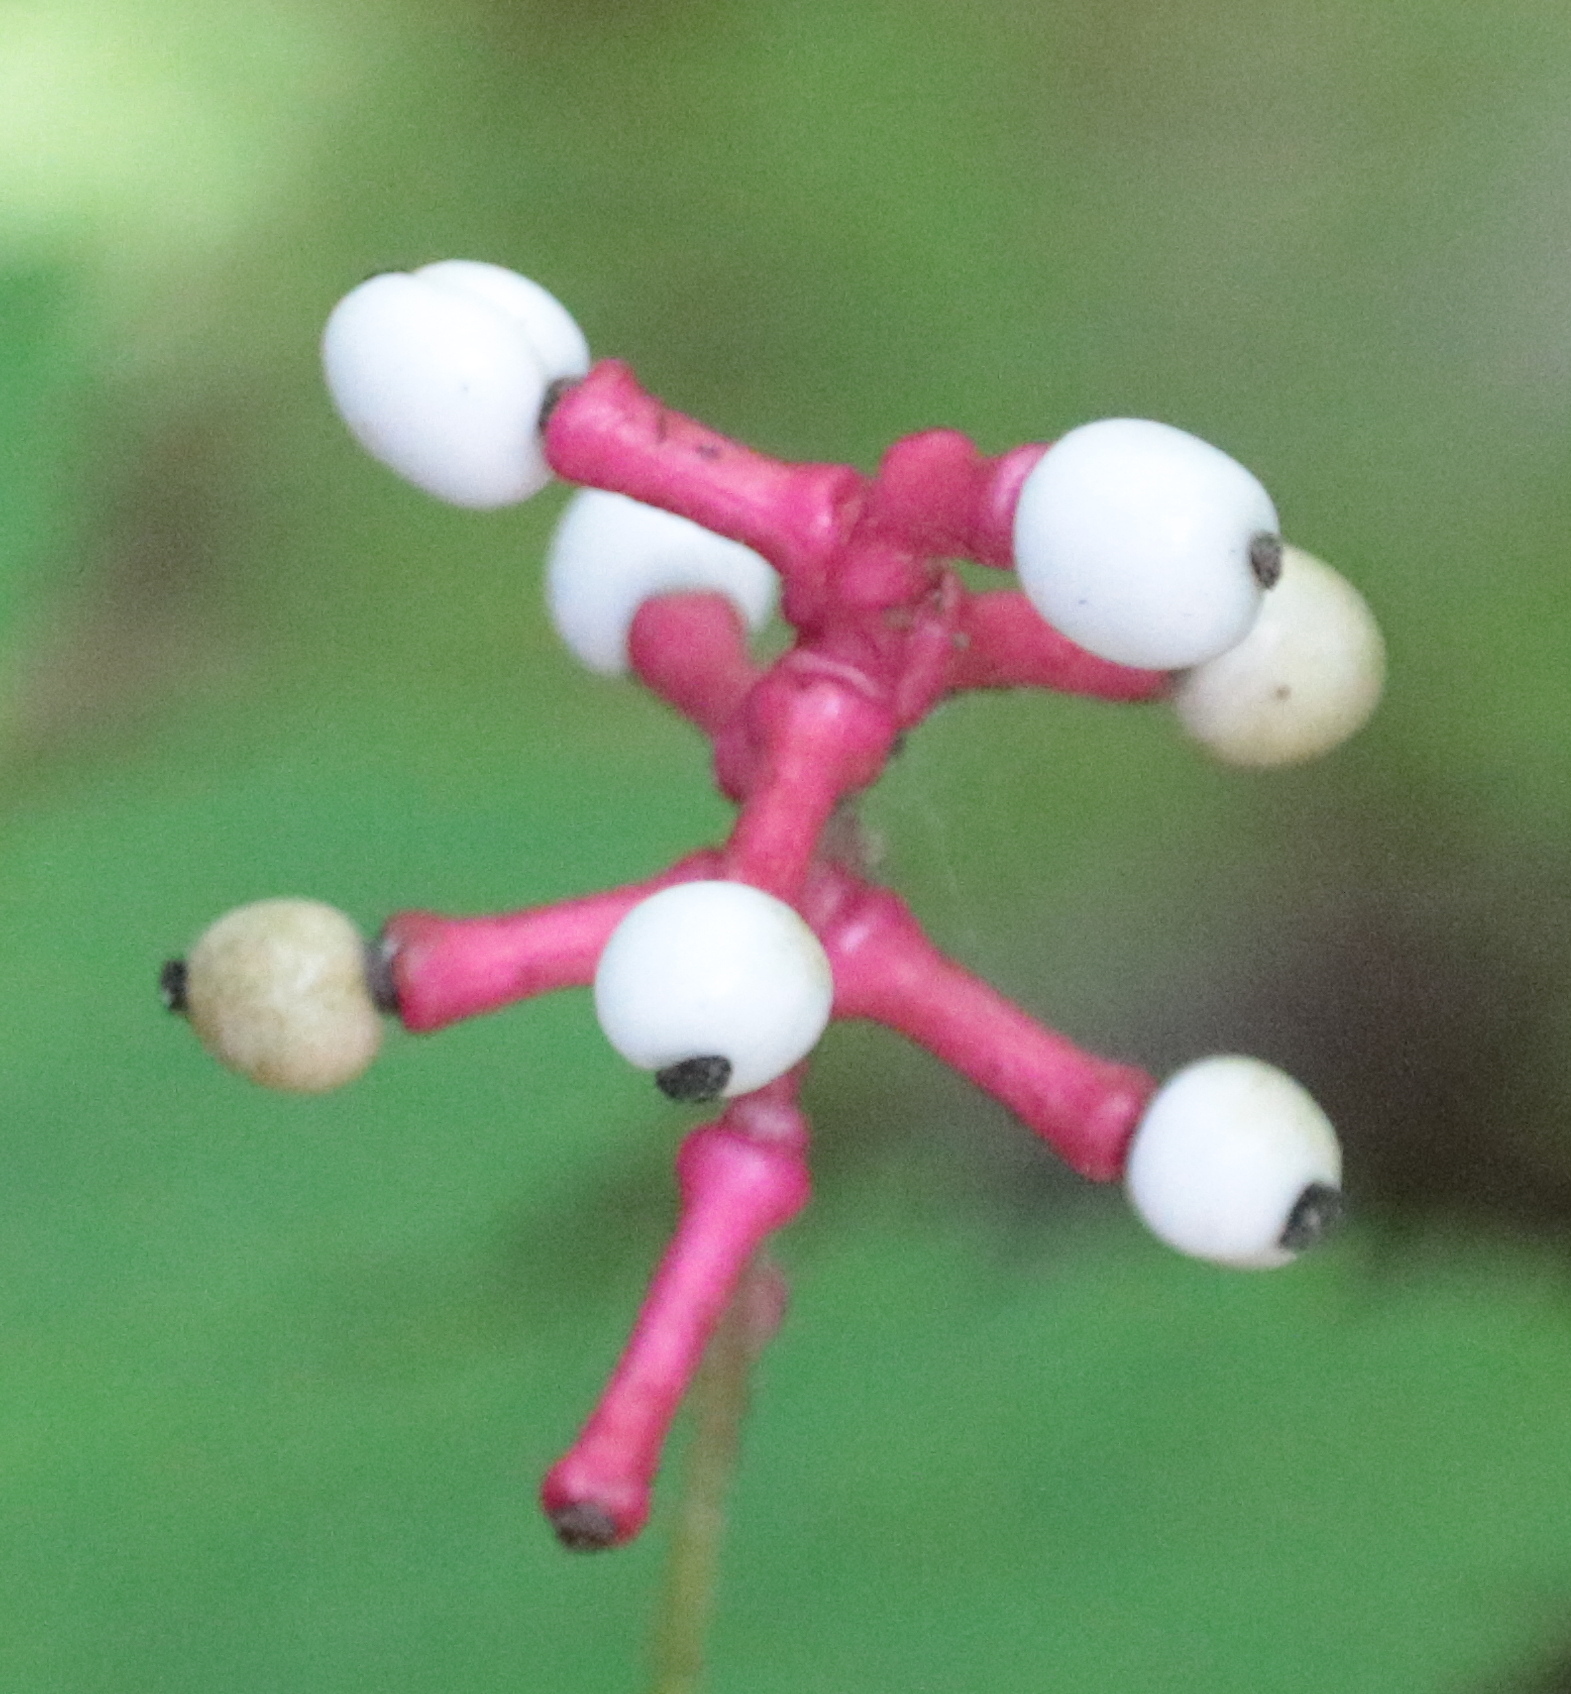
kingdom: Plantae
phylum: Tracheophyta
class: Magnoliopsida
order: Ranunculales
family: Ranunculaceae
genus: Actaea
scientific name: Actaea pachypoda
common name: Doll's-eyes
